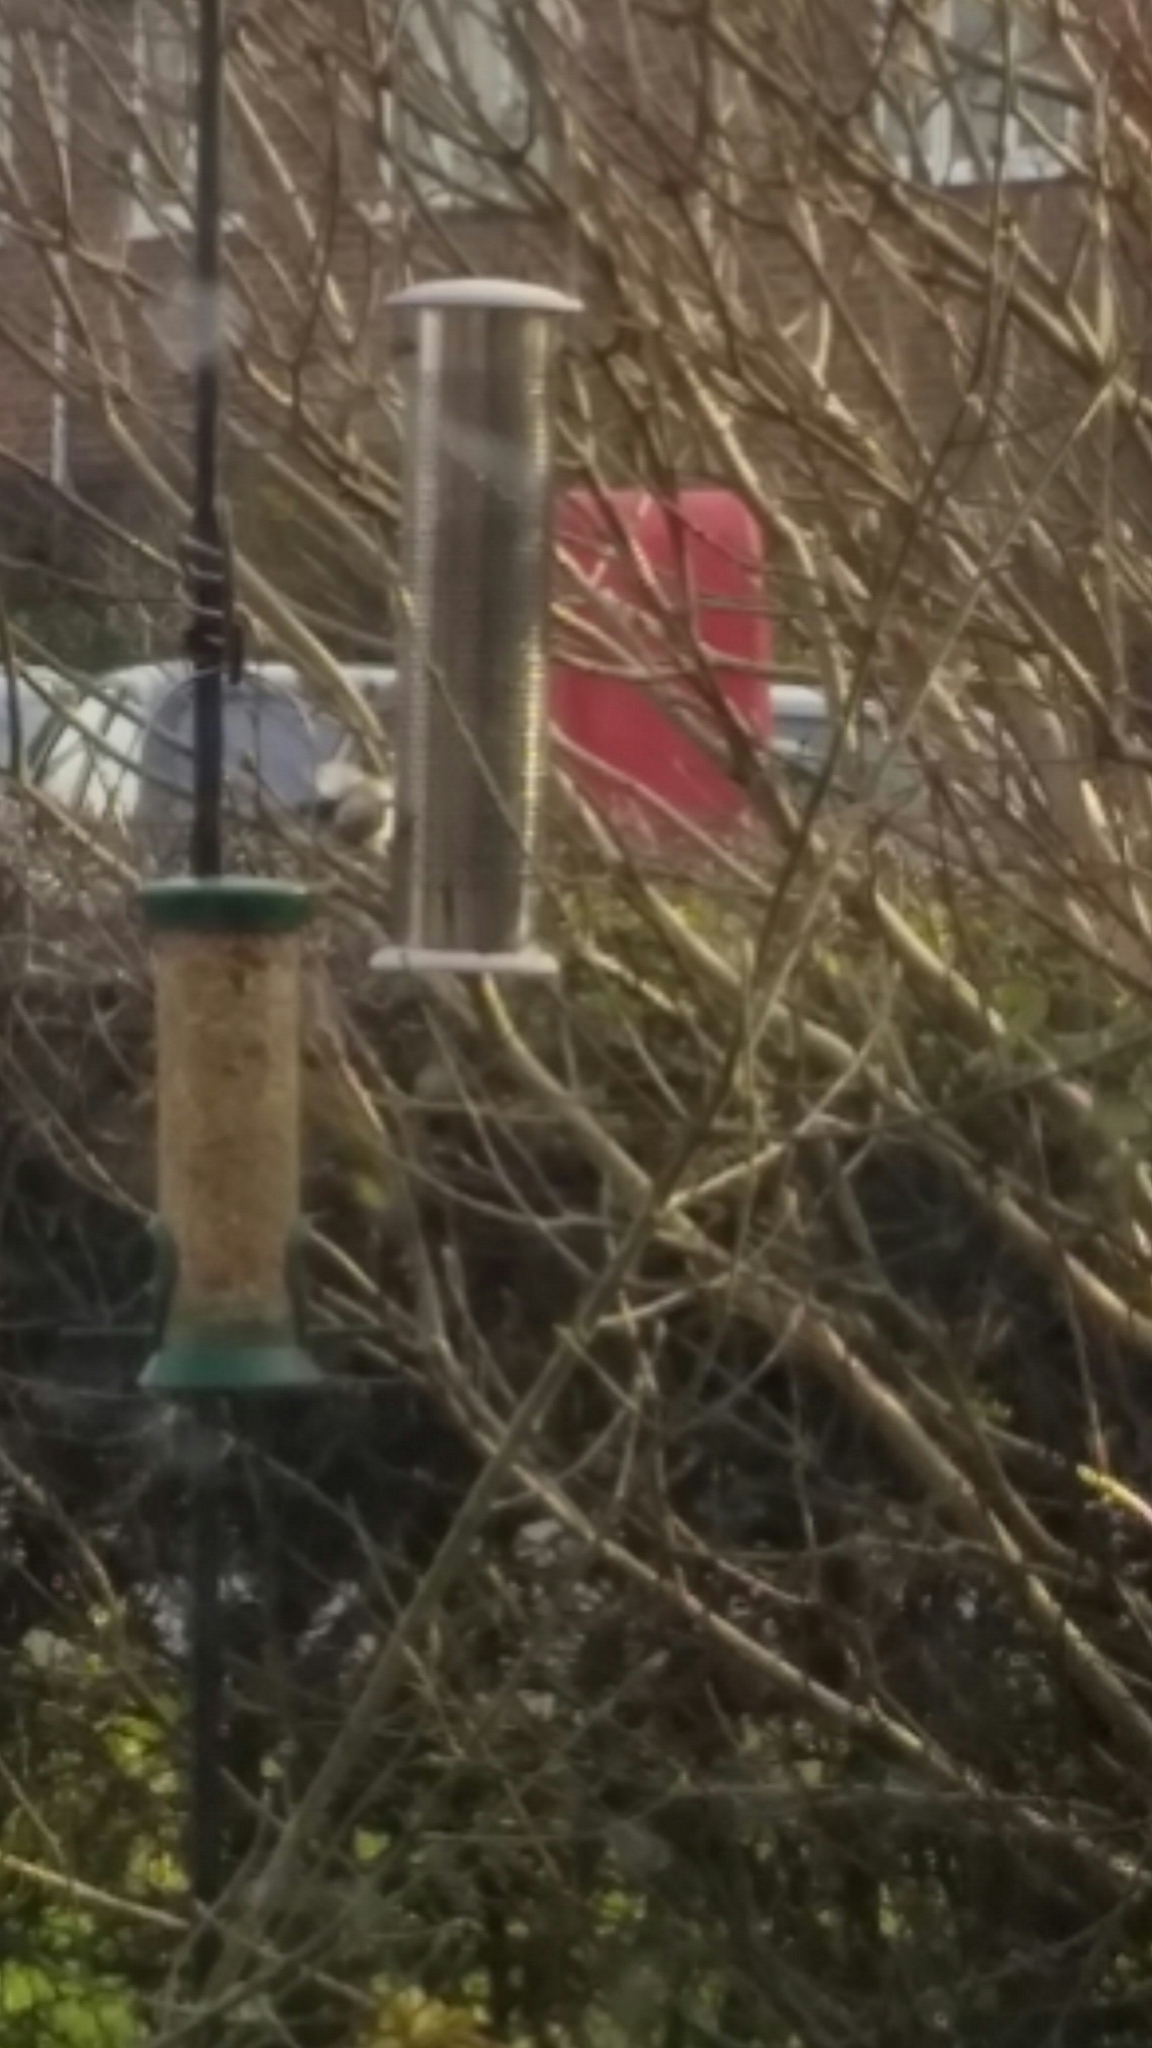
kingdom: Plantae
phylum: Tracheophyta
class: Liliopsida
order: Poales
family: Poaceae
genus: Chloris
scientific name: Chloris chloris
